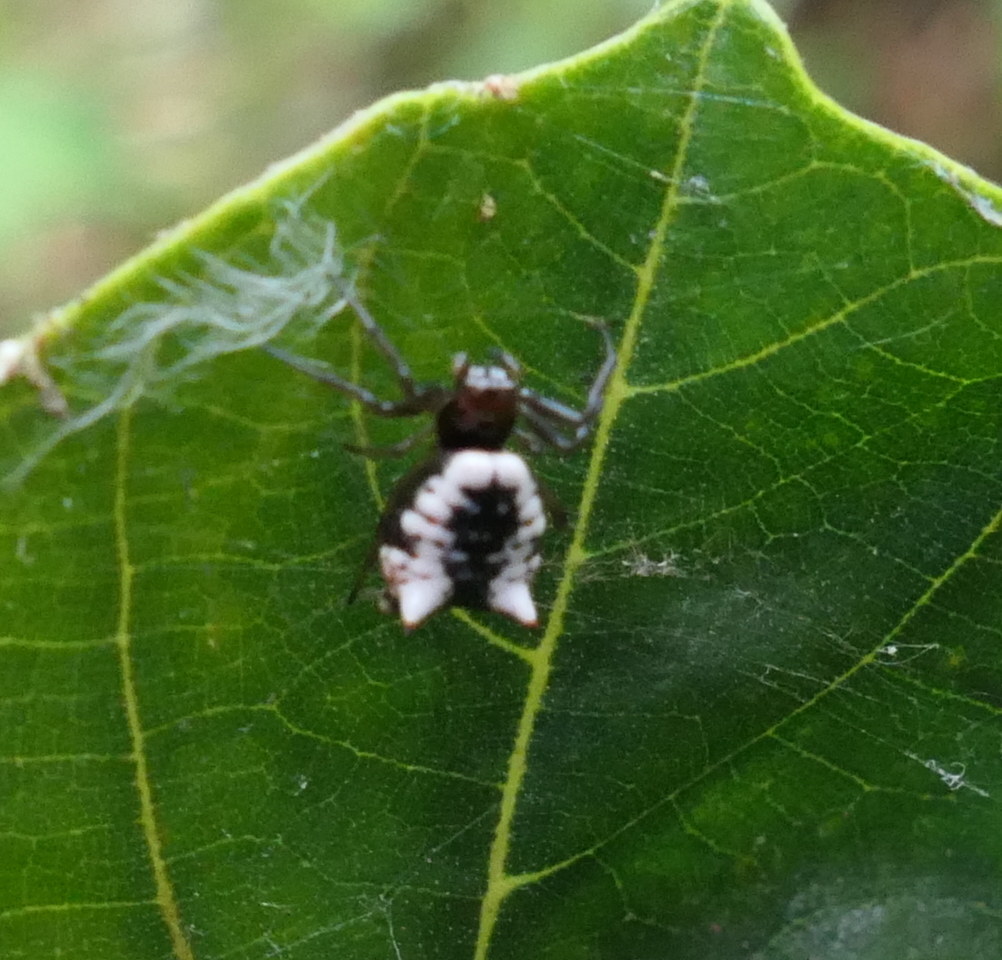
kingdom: Animalia
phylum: Arthropoda
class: Arachnida
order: Araneae
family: Araneidae
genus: Micrathena
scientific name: Micrathena patruelis
